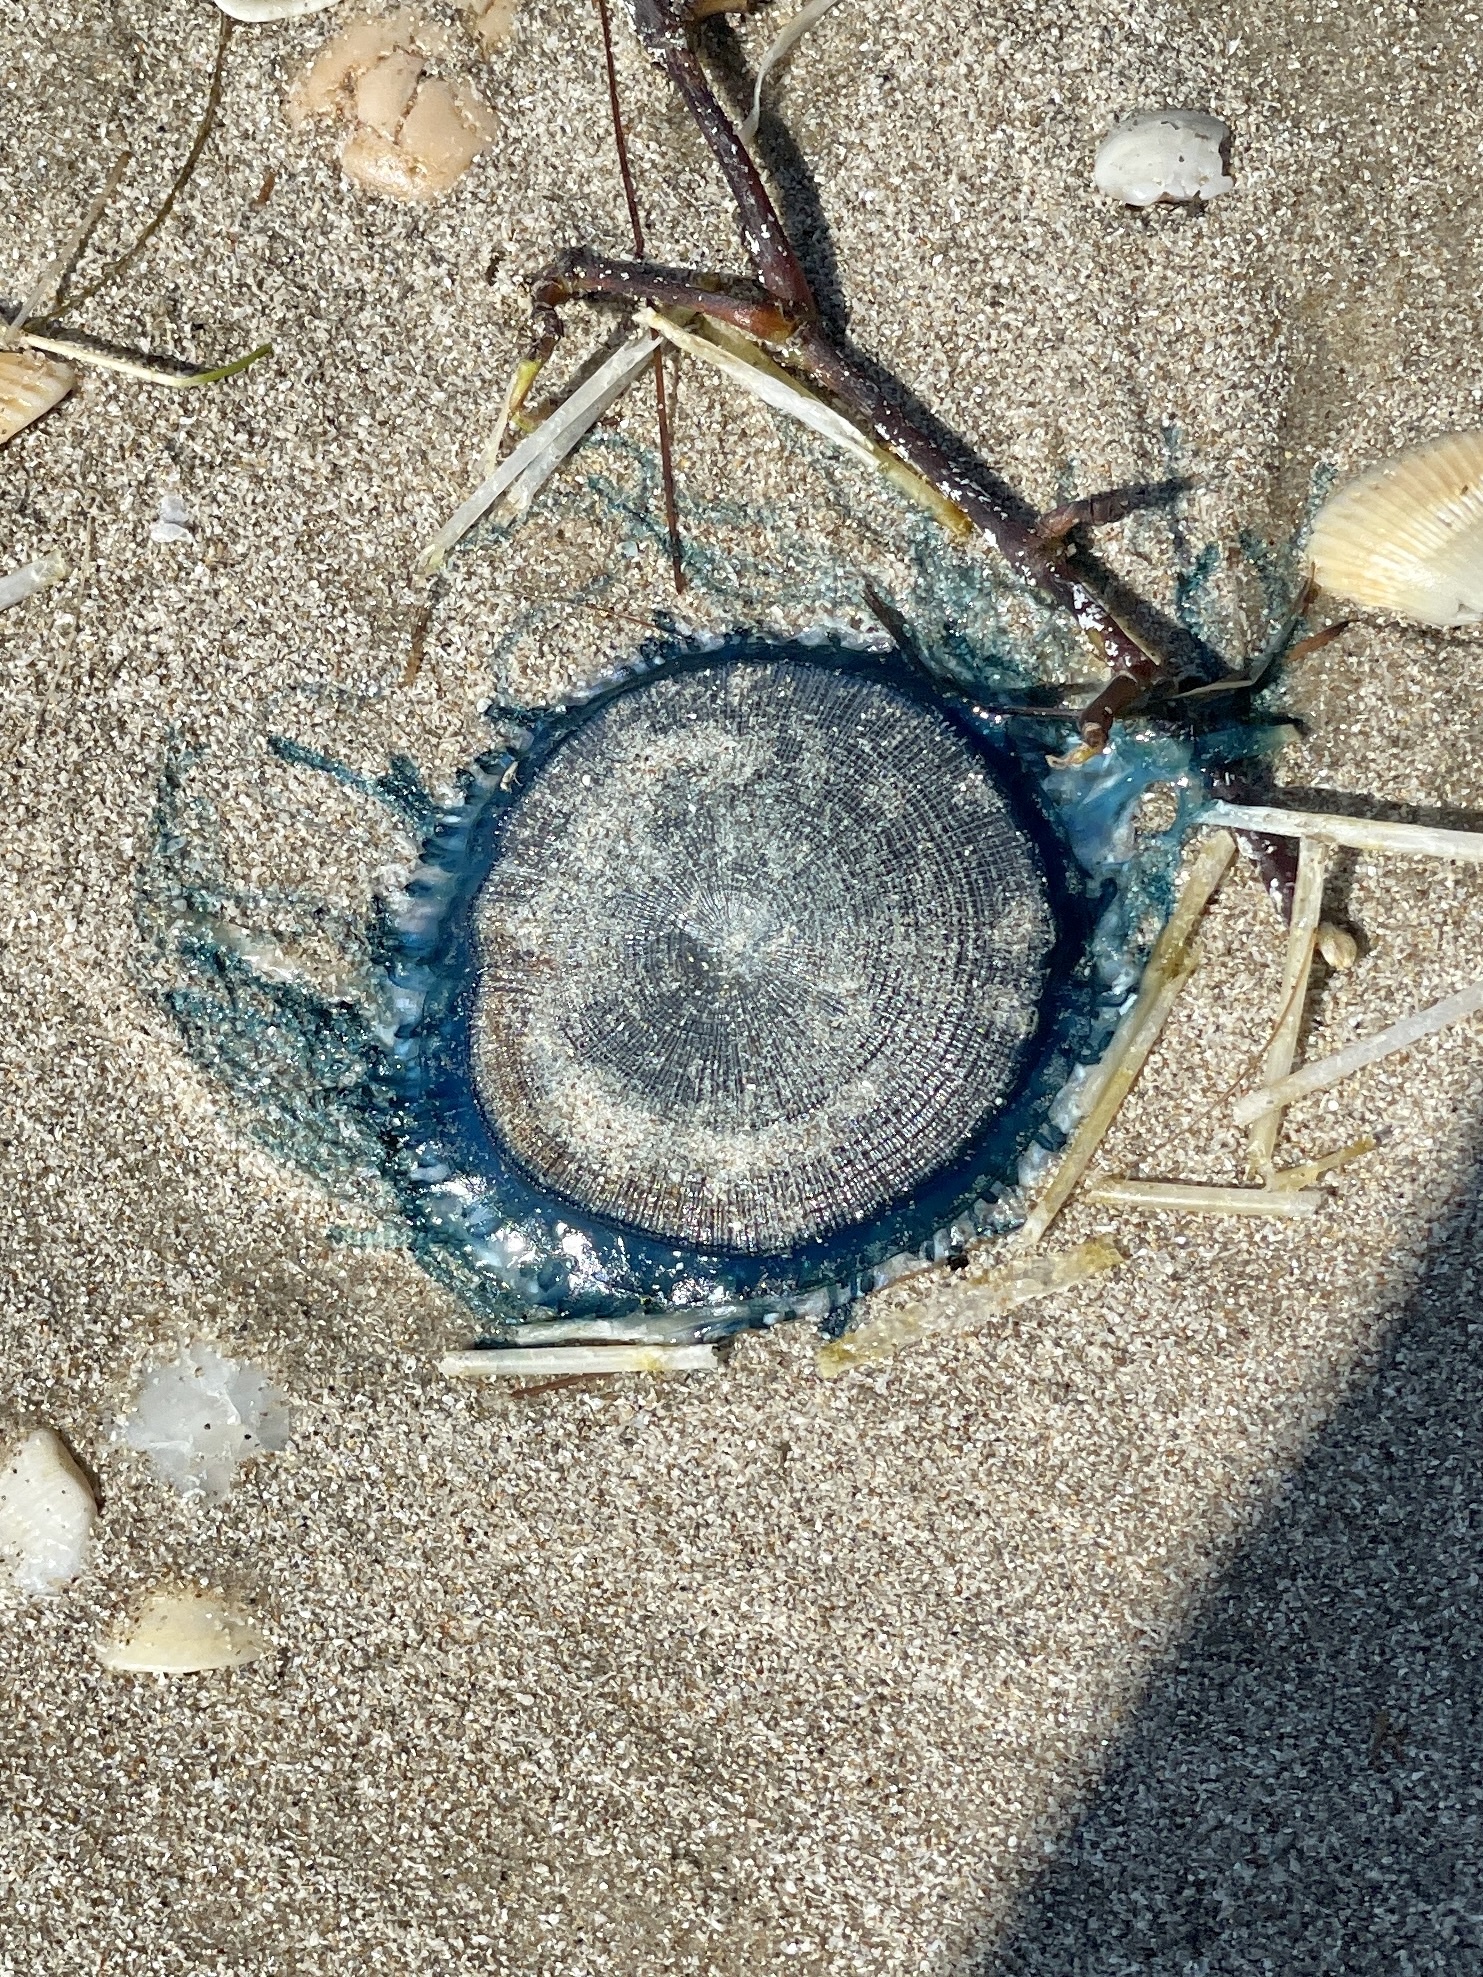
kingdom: Animalia
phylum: Cnidaria
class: Hydrozoa
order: Anthoathecata
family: Porpitidae
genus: Porpita
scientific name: Porpita porpita
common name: Blue button
